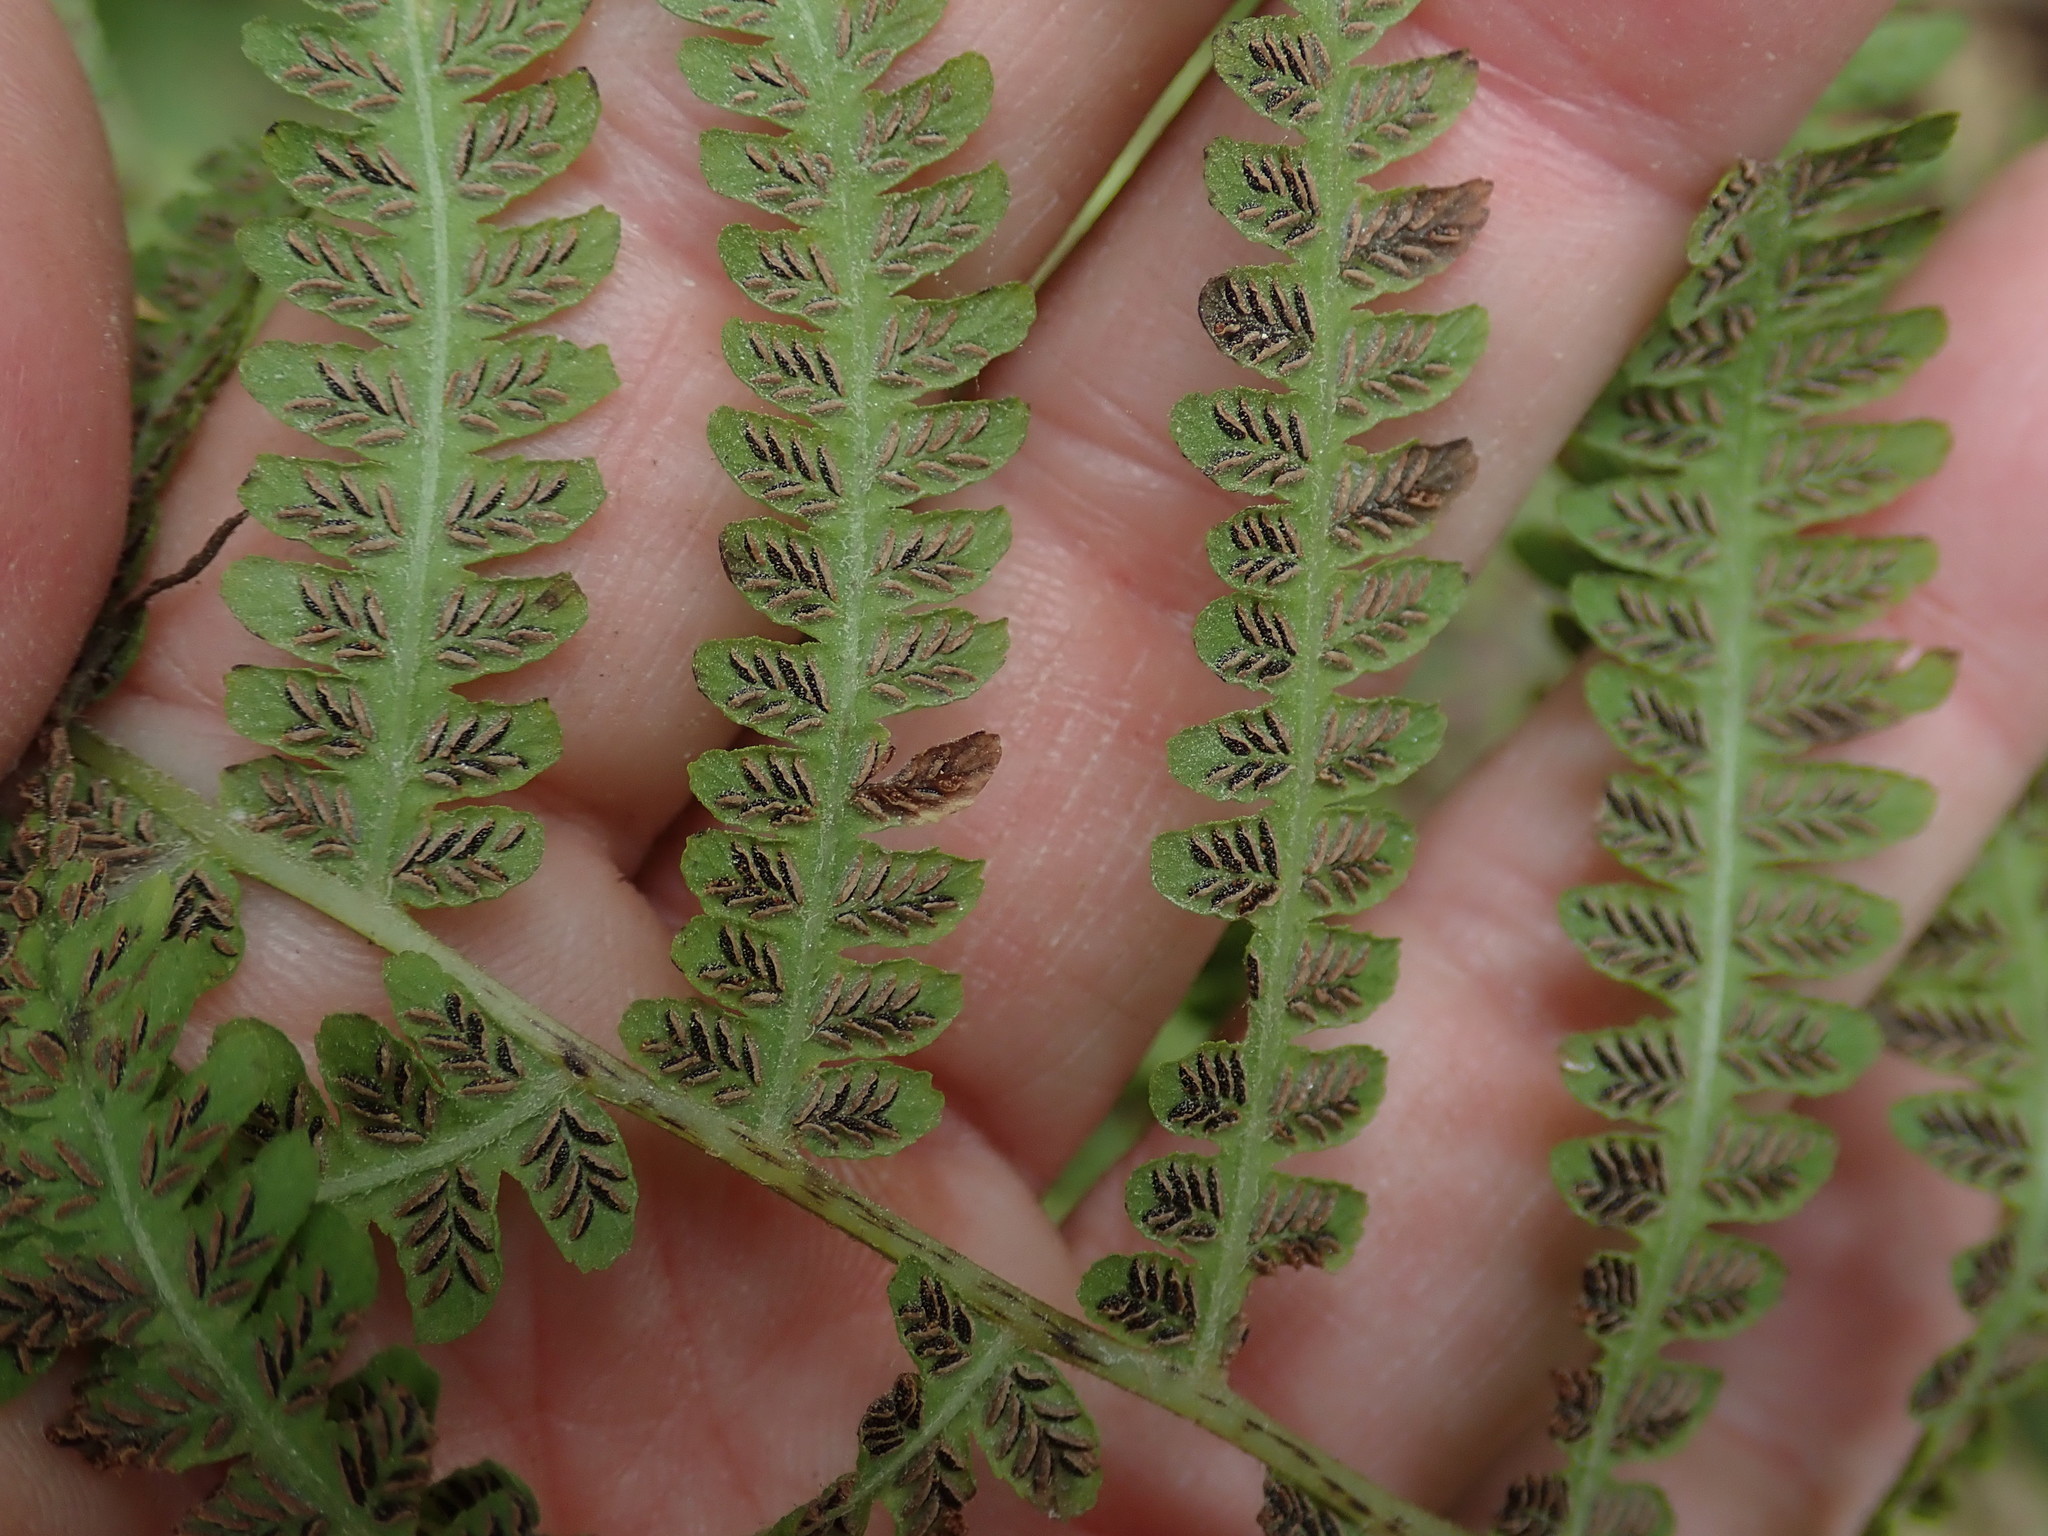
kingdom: Plantae
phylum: Tracheophyta
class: Polypodiopsida
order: Polypodiales
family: Athyriaceae
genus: Deparia
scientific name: Deparia acrostichoides
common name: Silver false spleenwort
